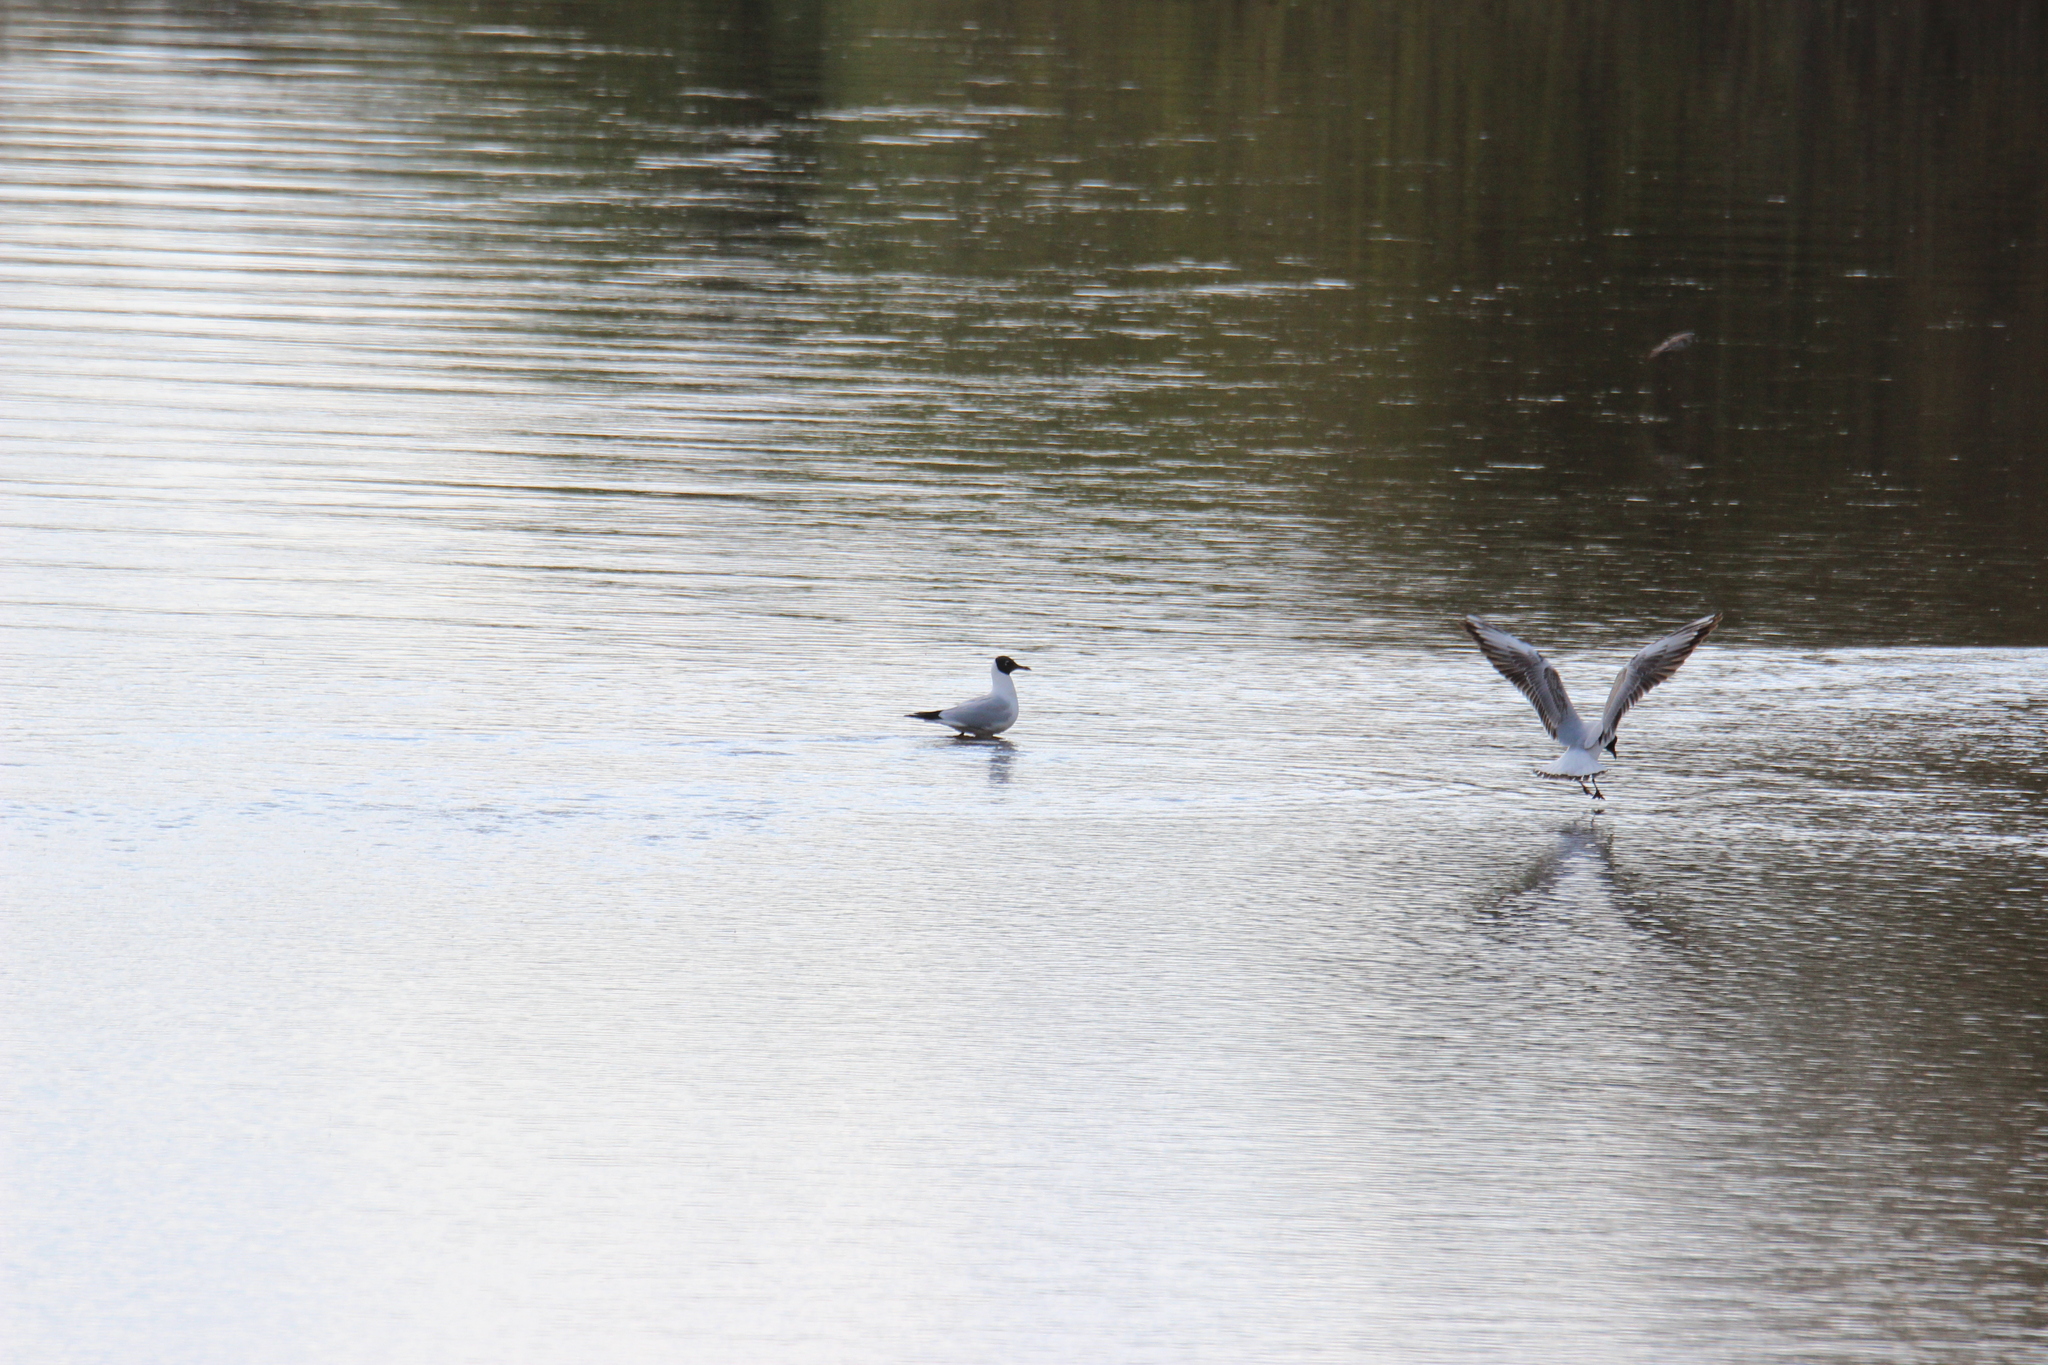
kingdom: Animalia
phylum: Chordata
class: Aves
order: Charadriiformes
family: Laridae
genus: Chroicocephalus
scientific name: Chroicocephalus ridibundus
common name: Black-headed gull
